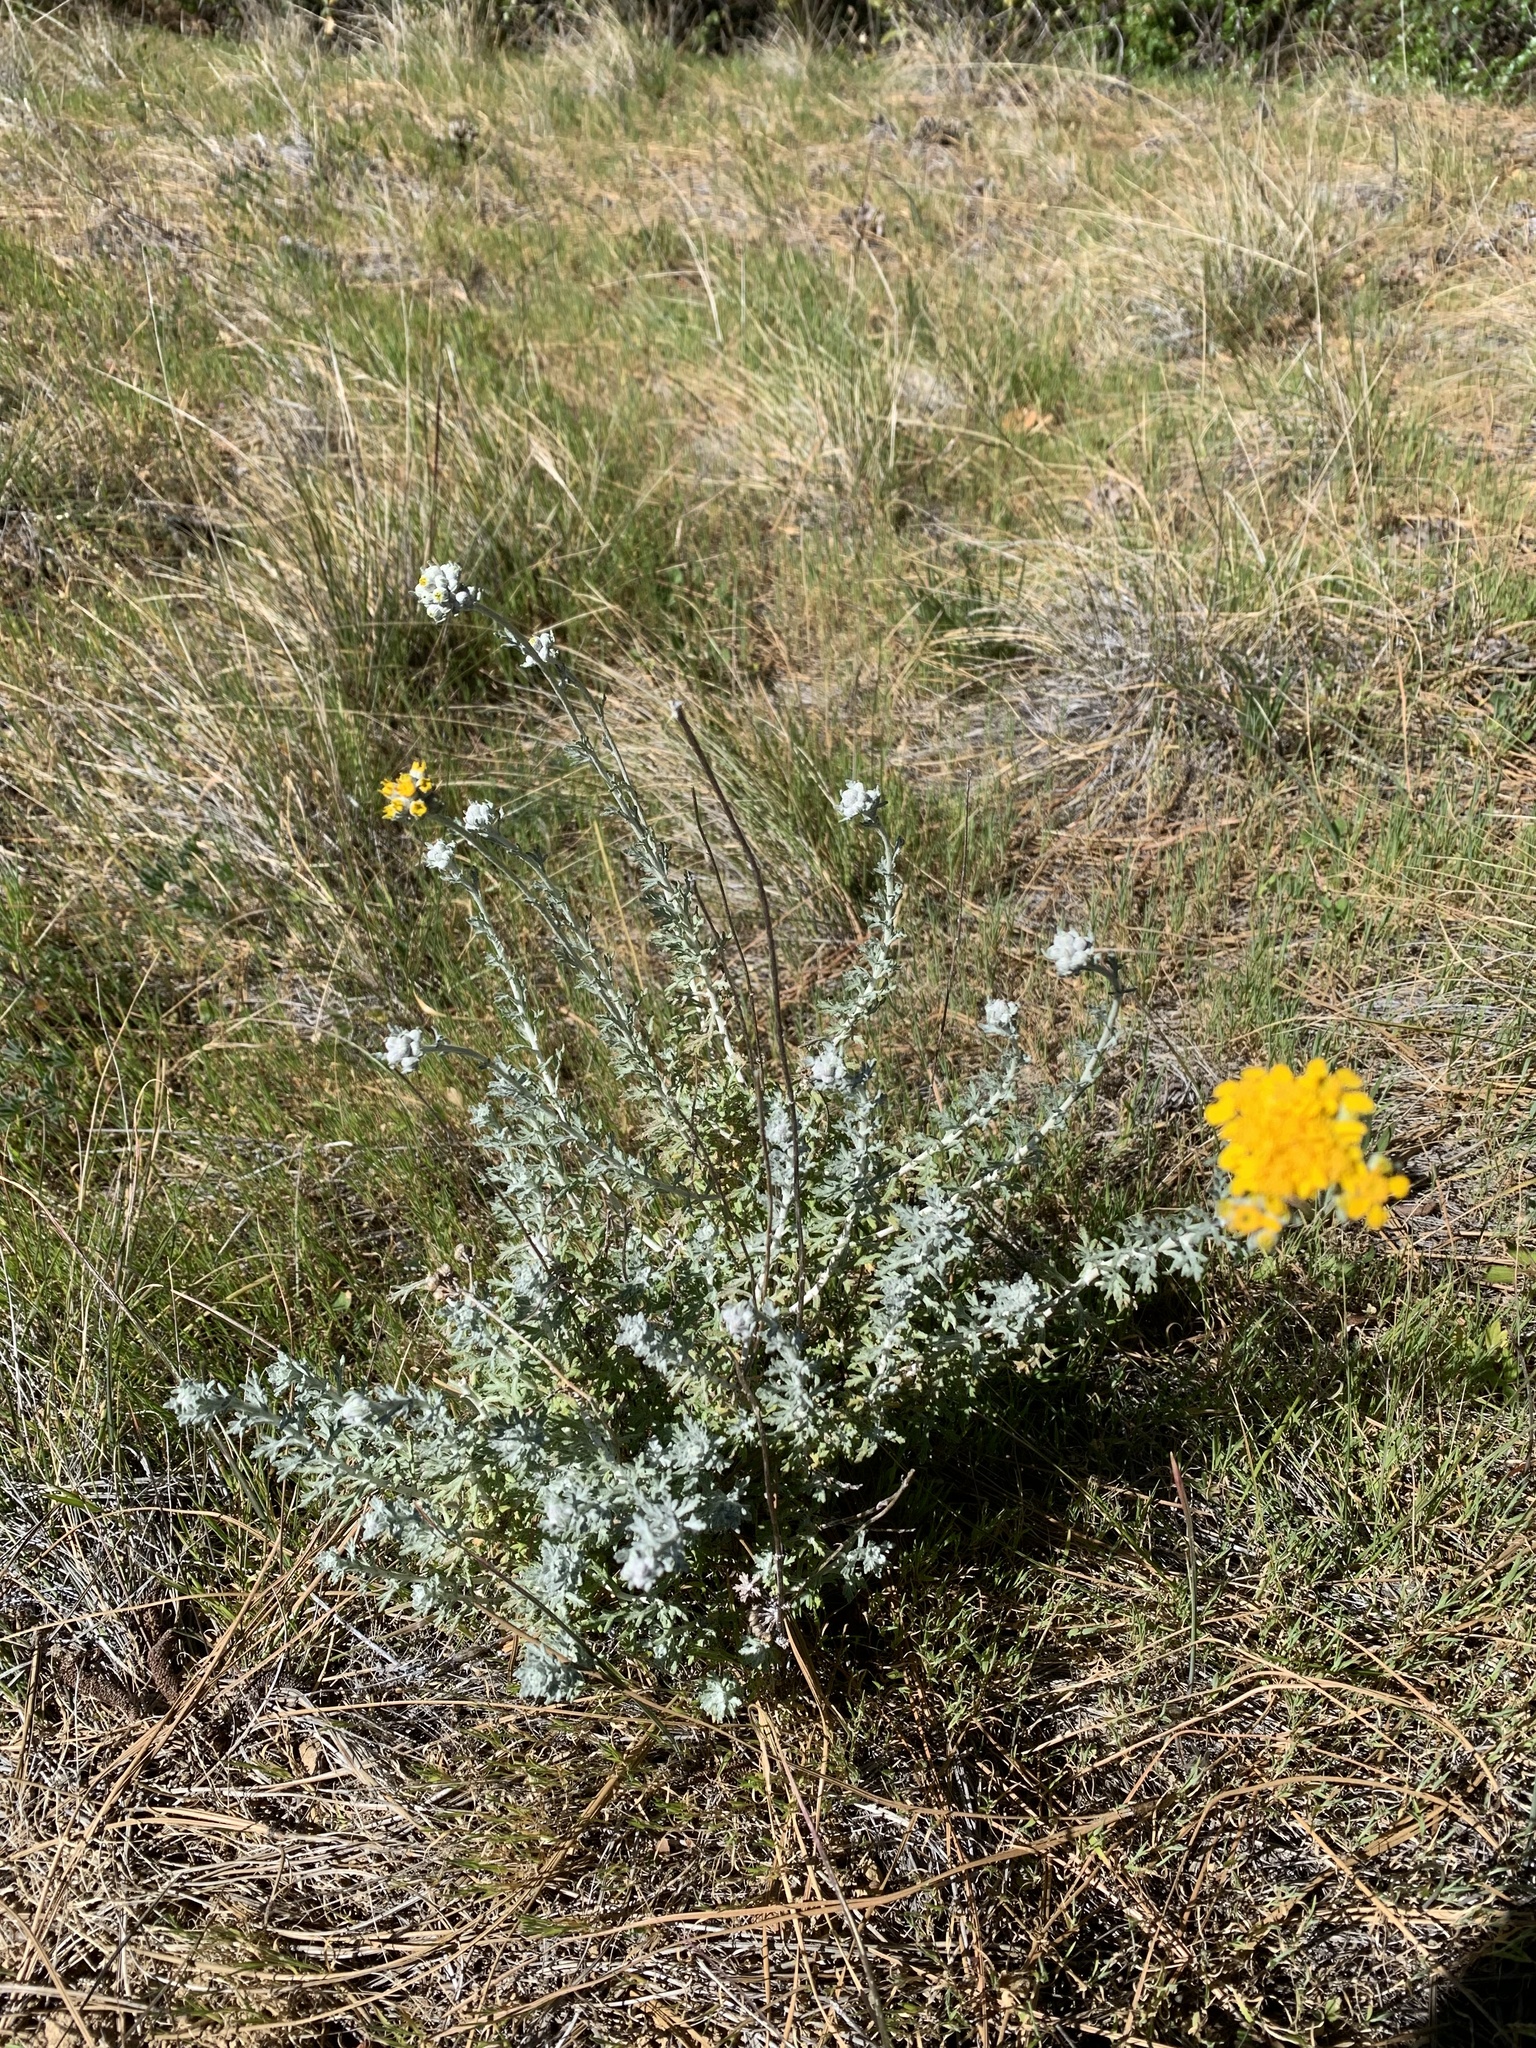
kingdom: Plantae
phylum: Tracheophyta
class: Magnoliopsida
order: Asterales
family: Asteraceae
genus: Eriophyllum
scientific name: Eriophyllum confertiflorum
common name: Golden-yarrow
